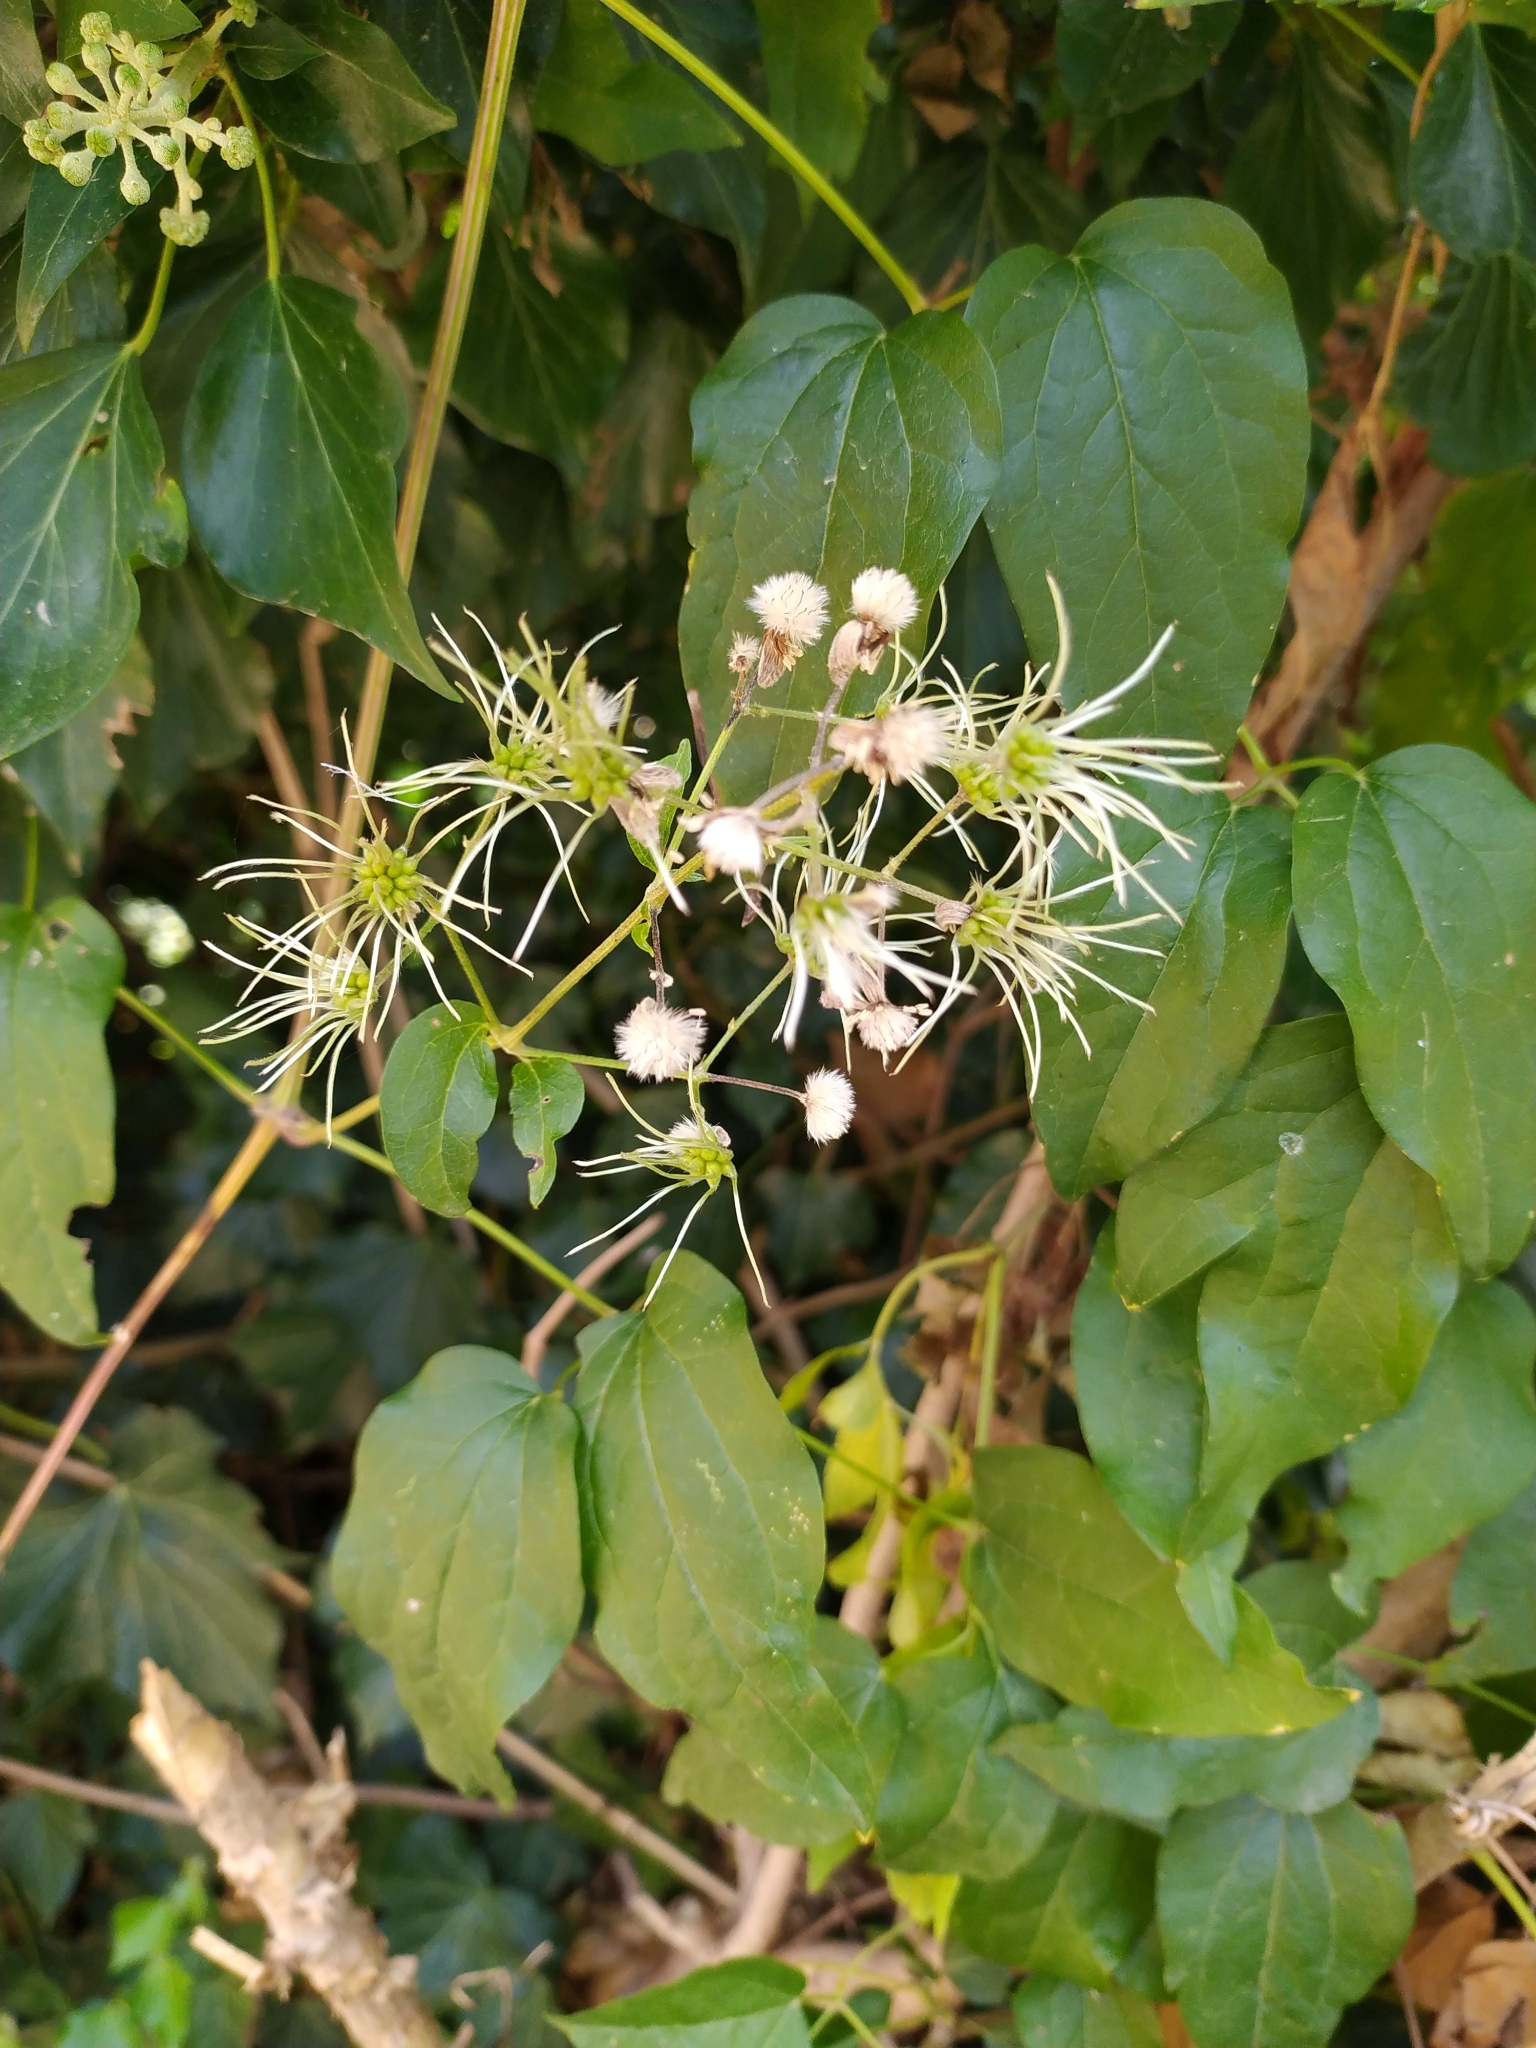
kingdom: Plantae
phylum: Tracheophyta
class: Magnoliopsida
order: Ranunculales
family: Ranunculaceae
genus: Clematis
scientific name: Clematis vitalba
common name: Evergreen clematis
